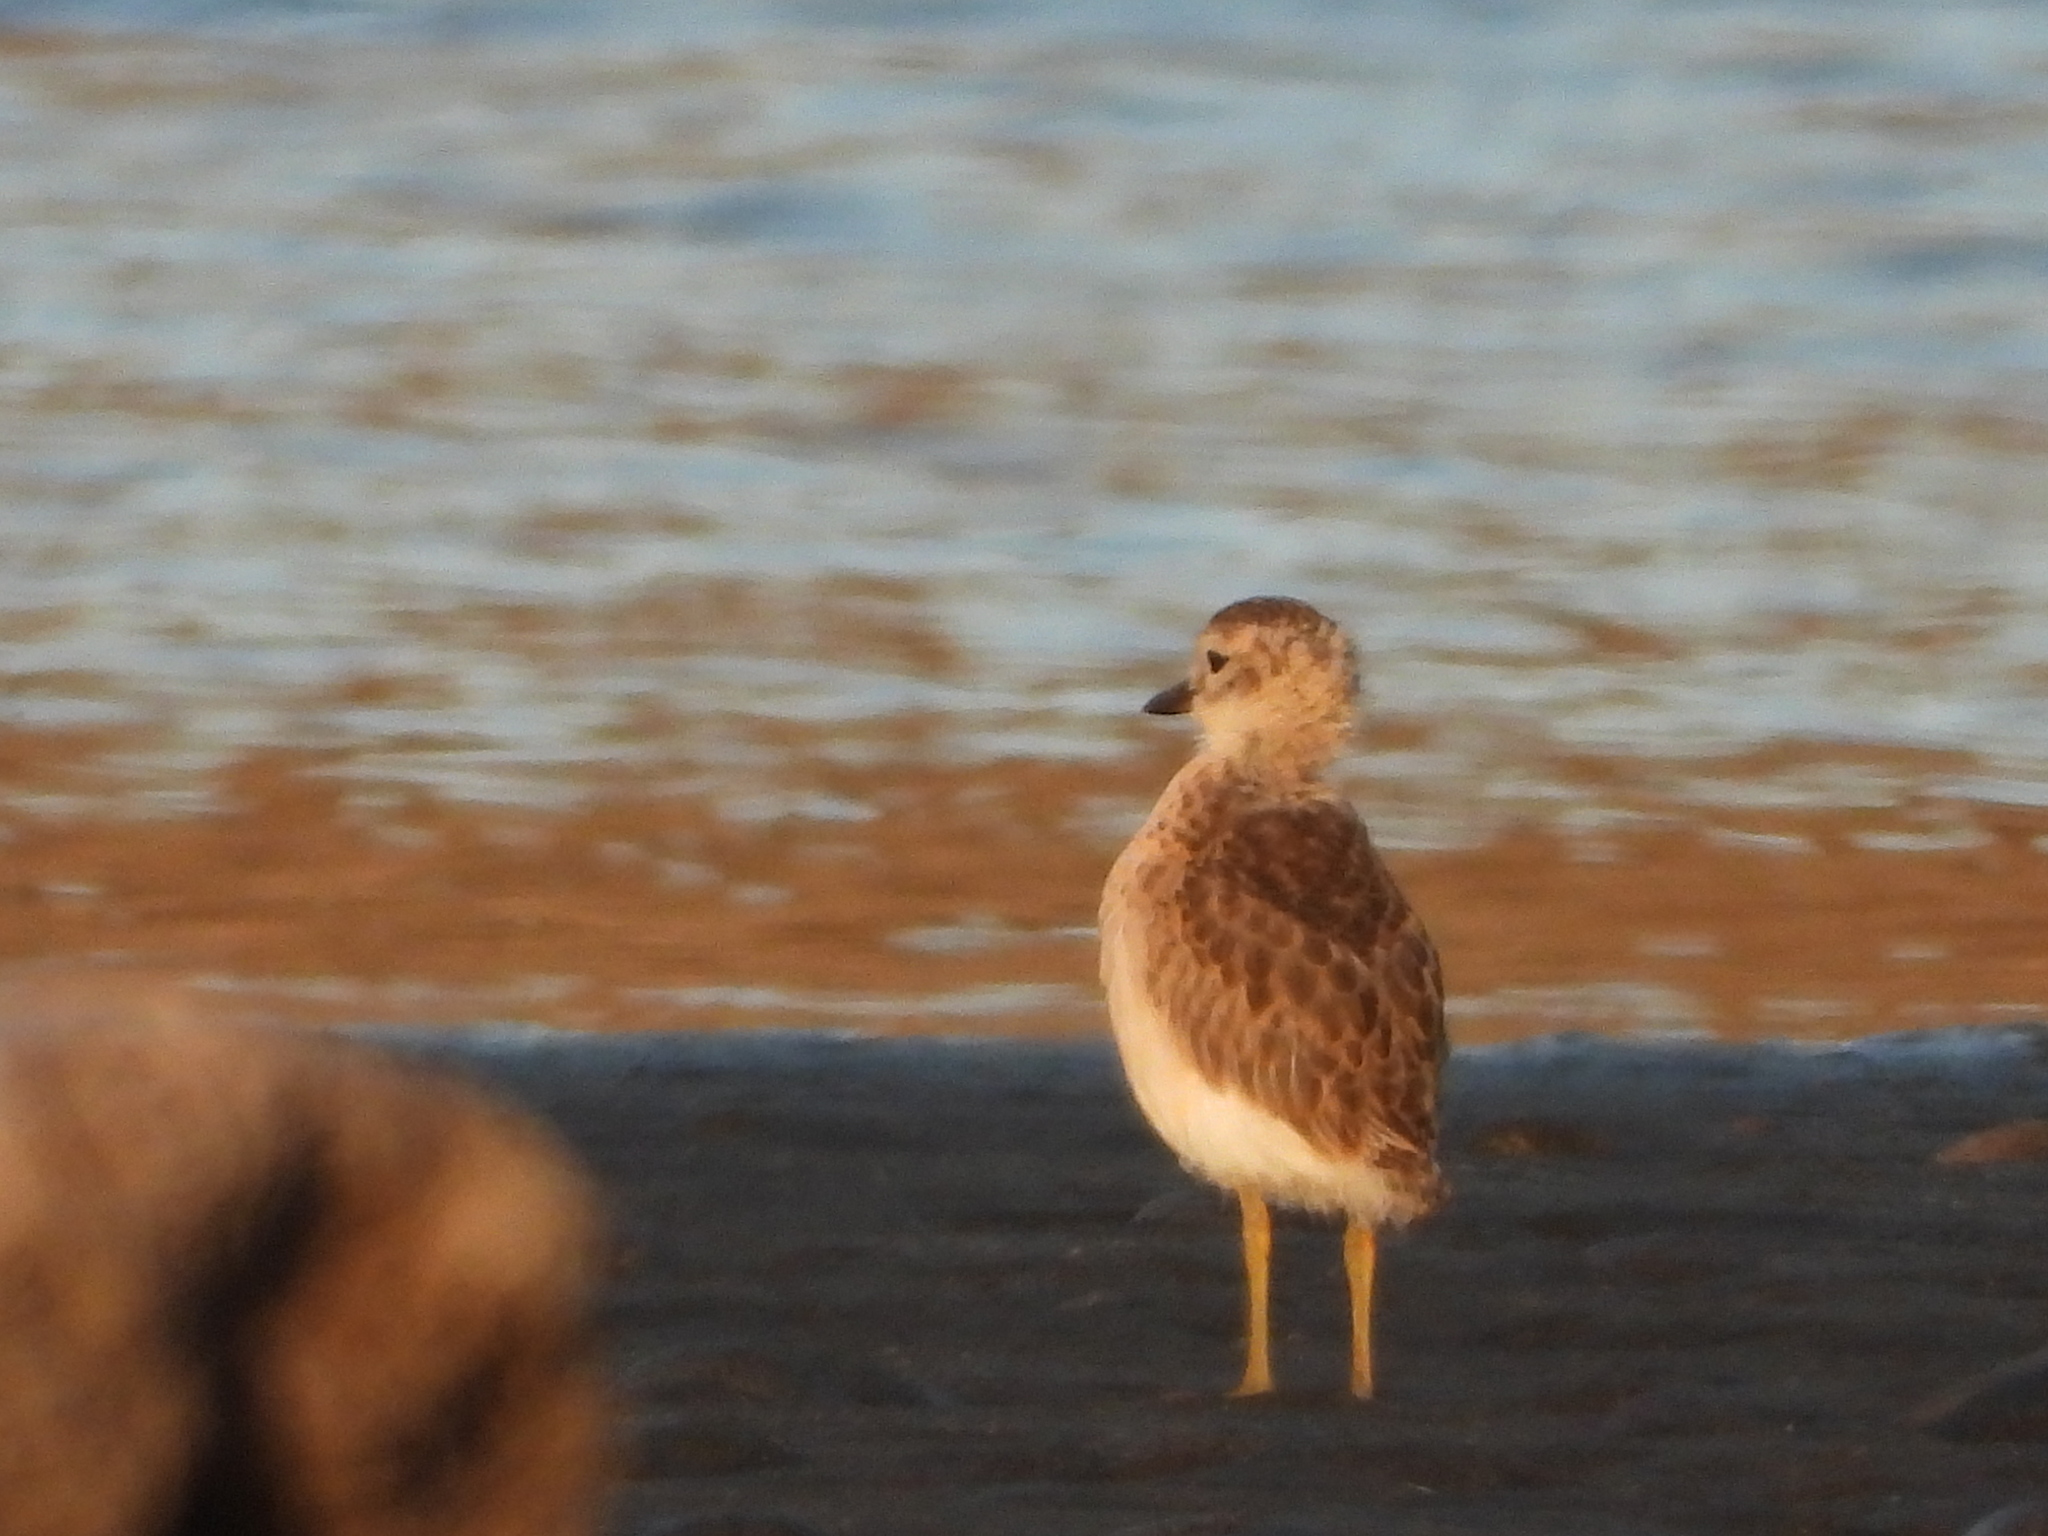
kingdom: Animalia
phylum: Chordata
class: Aves
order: Charadriiformes
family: Charadriidae
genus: Anarhynchus
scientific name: Anarhynchus
